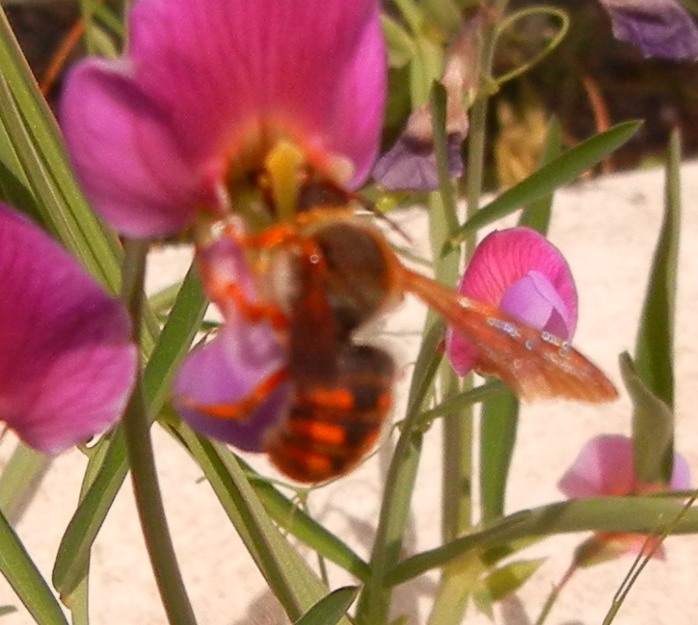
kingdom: Animalia
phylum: Arthropoda
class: Insecta
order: Hymenoptera
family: Megachilidae
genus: Rhodanthidium
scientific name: Rhodanthidium sticticum
